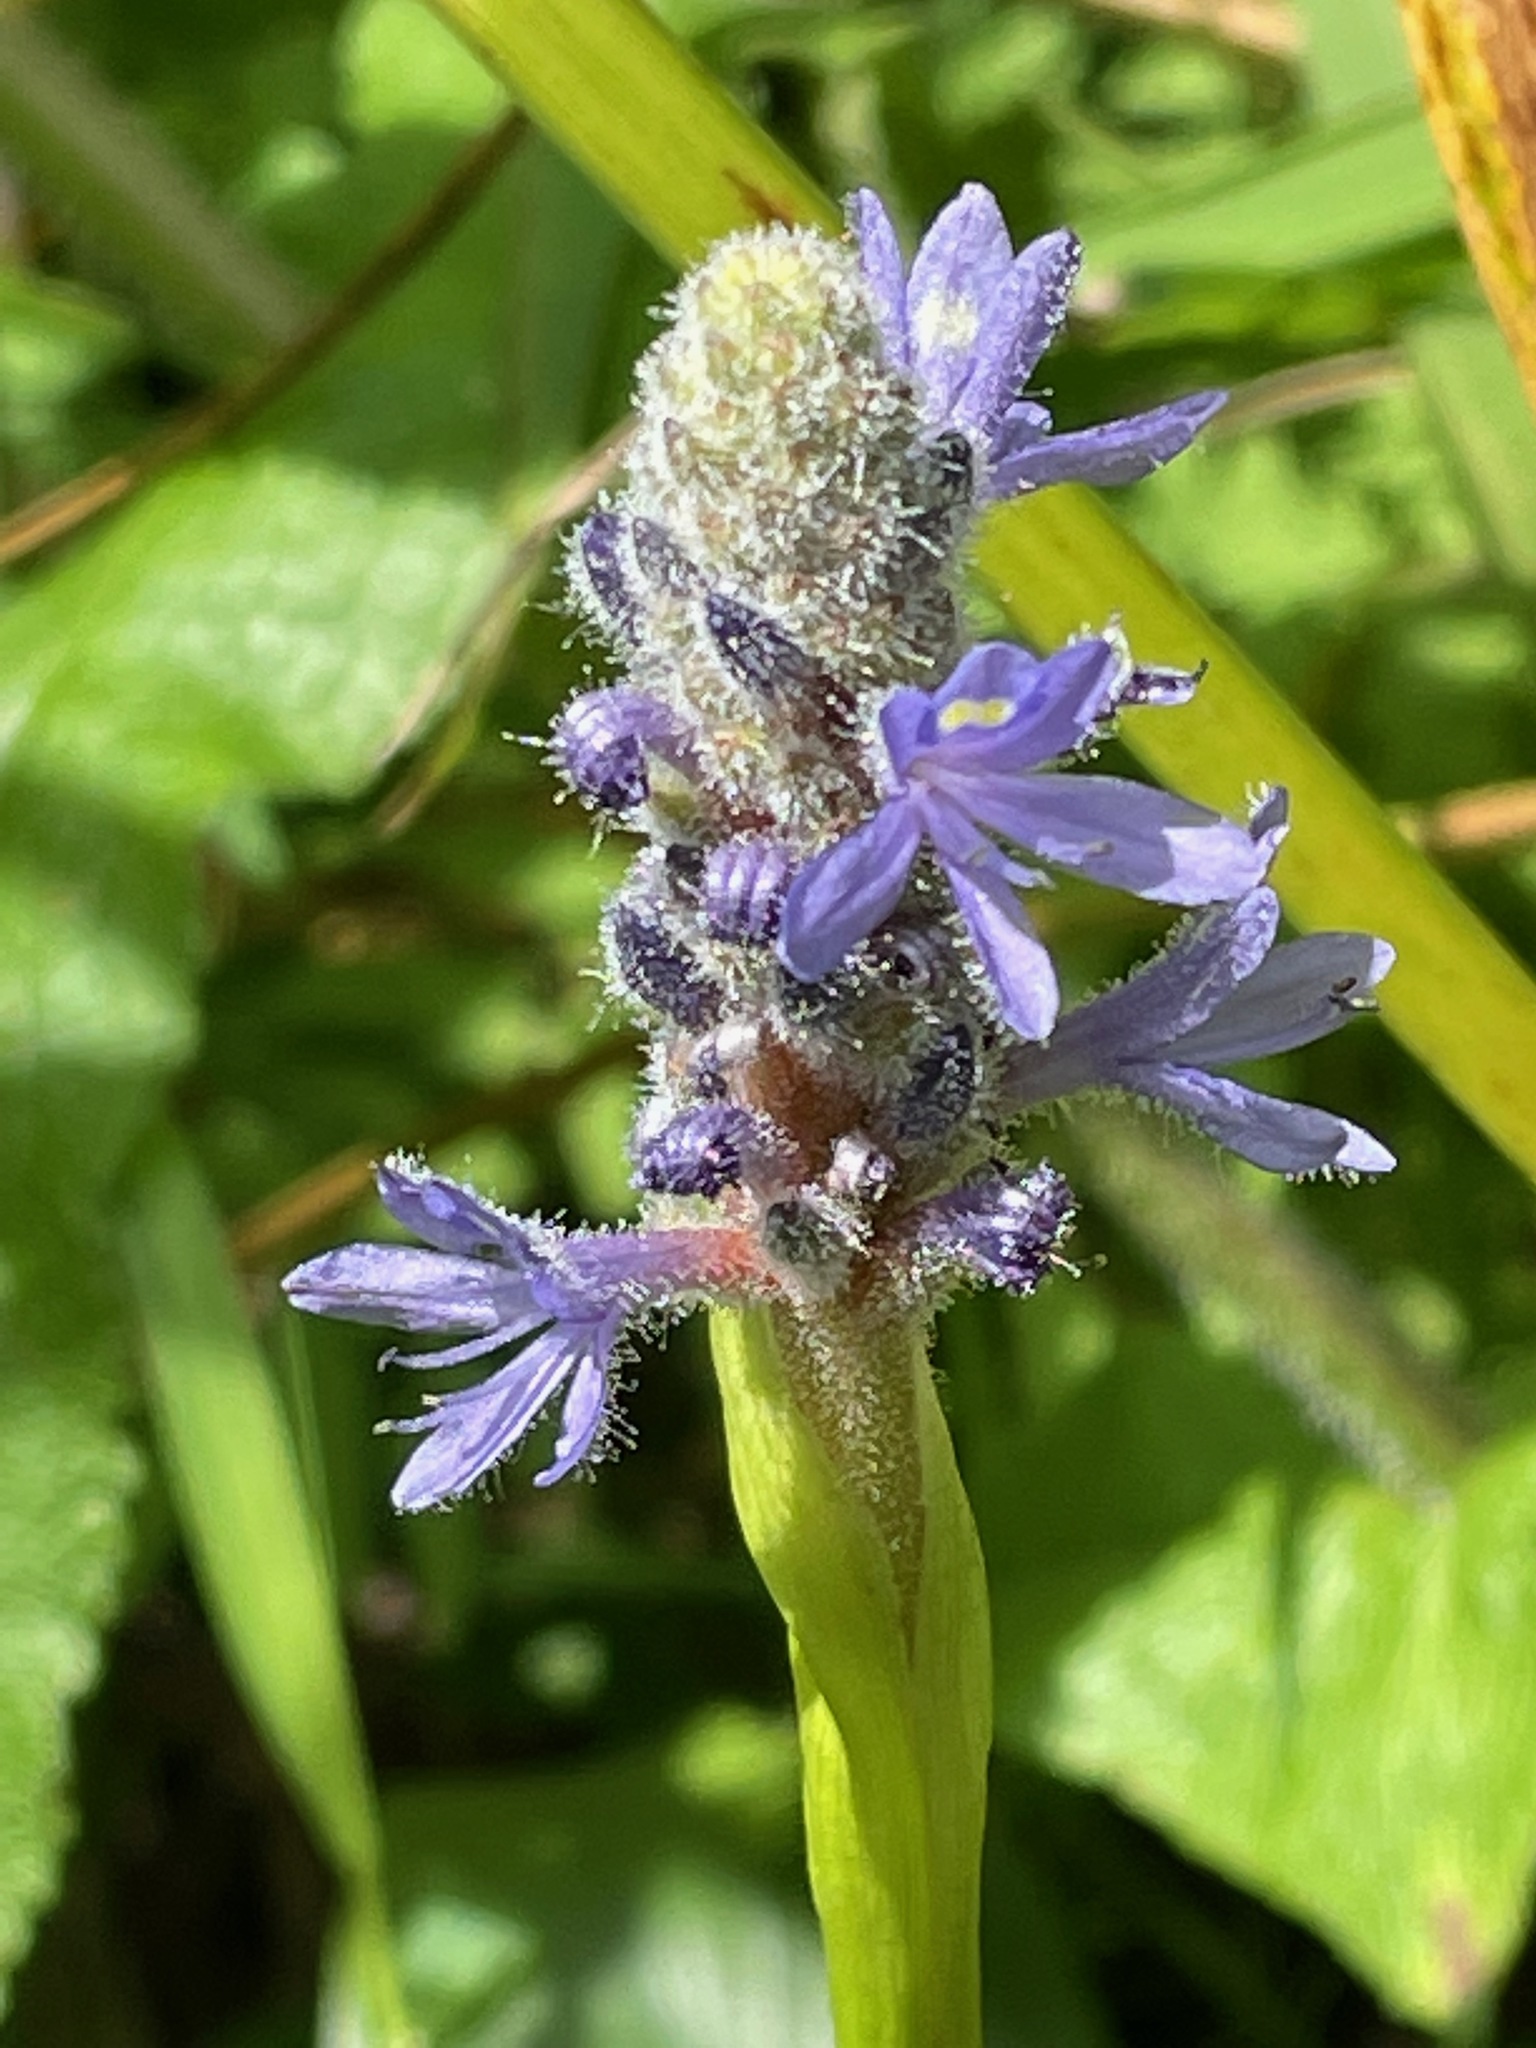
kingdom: Plantae
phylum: Tracheophyta
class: Liliopsida
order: Commelinales
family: Pontederiaceae
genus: Pontederia
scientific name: Pontederia cordata
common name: Pickerelweed
